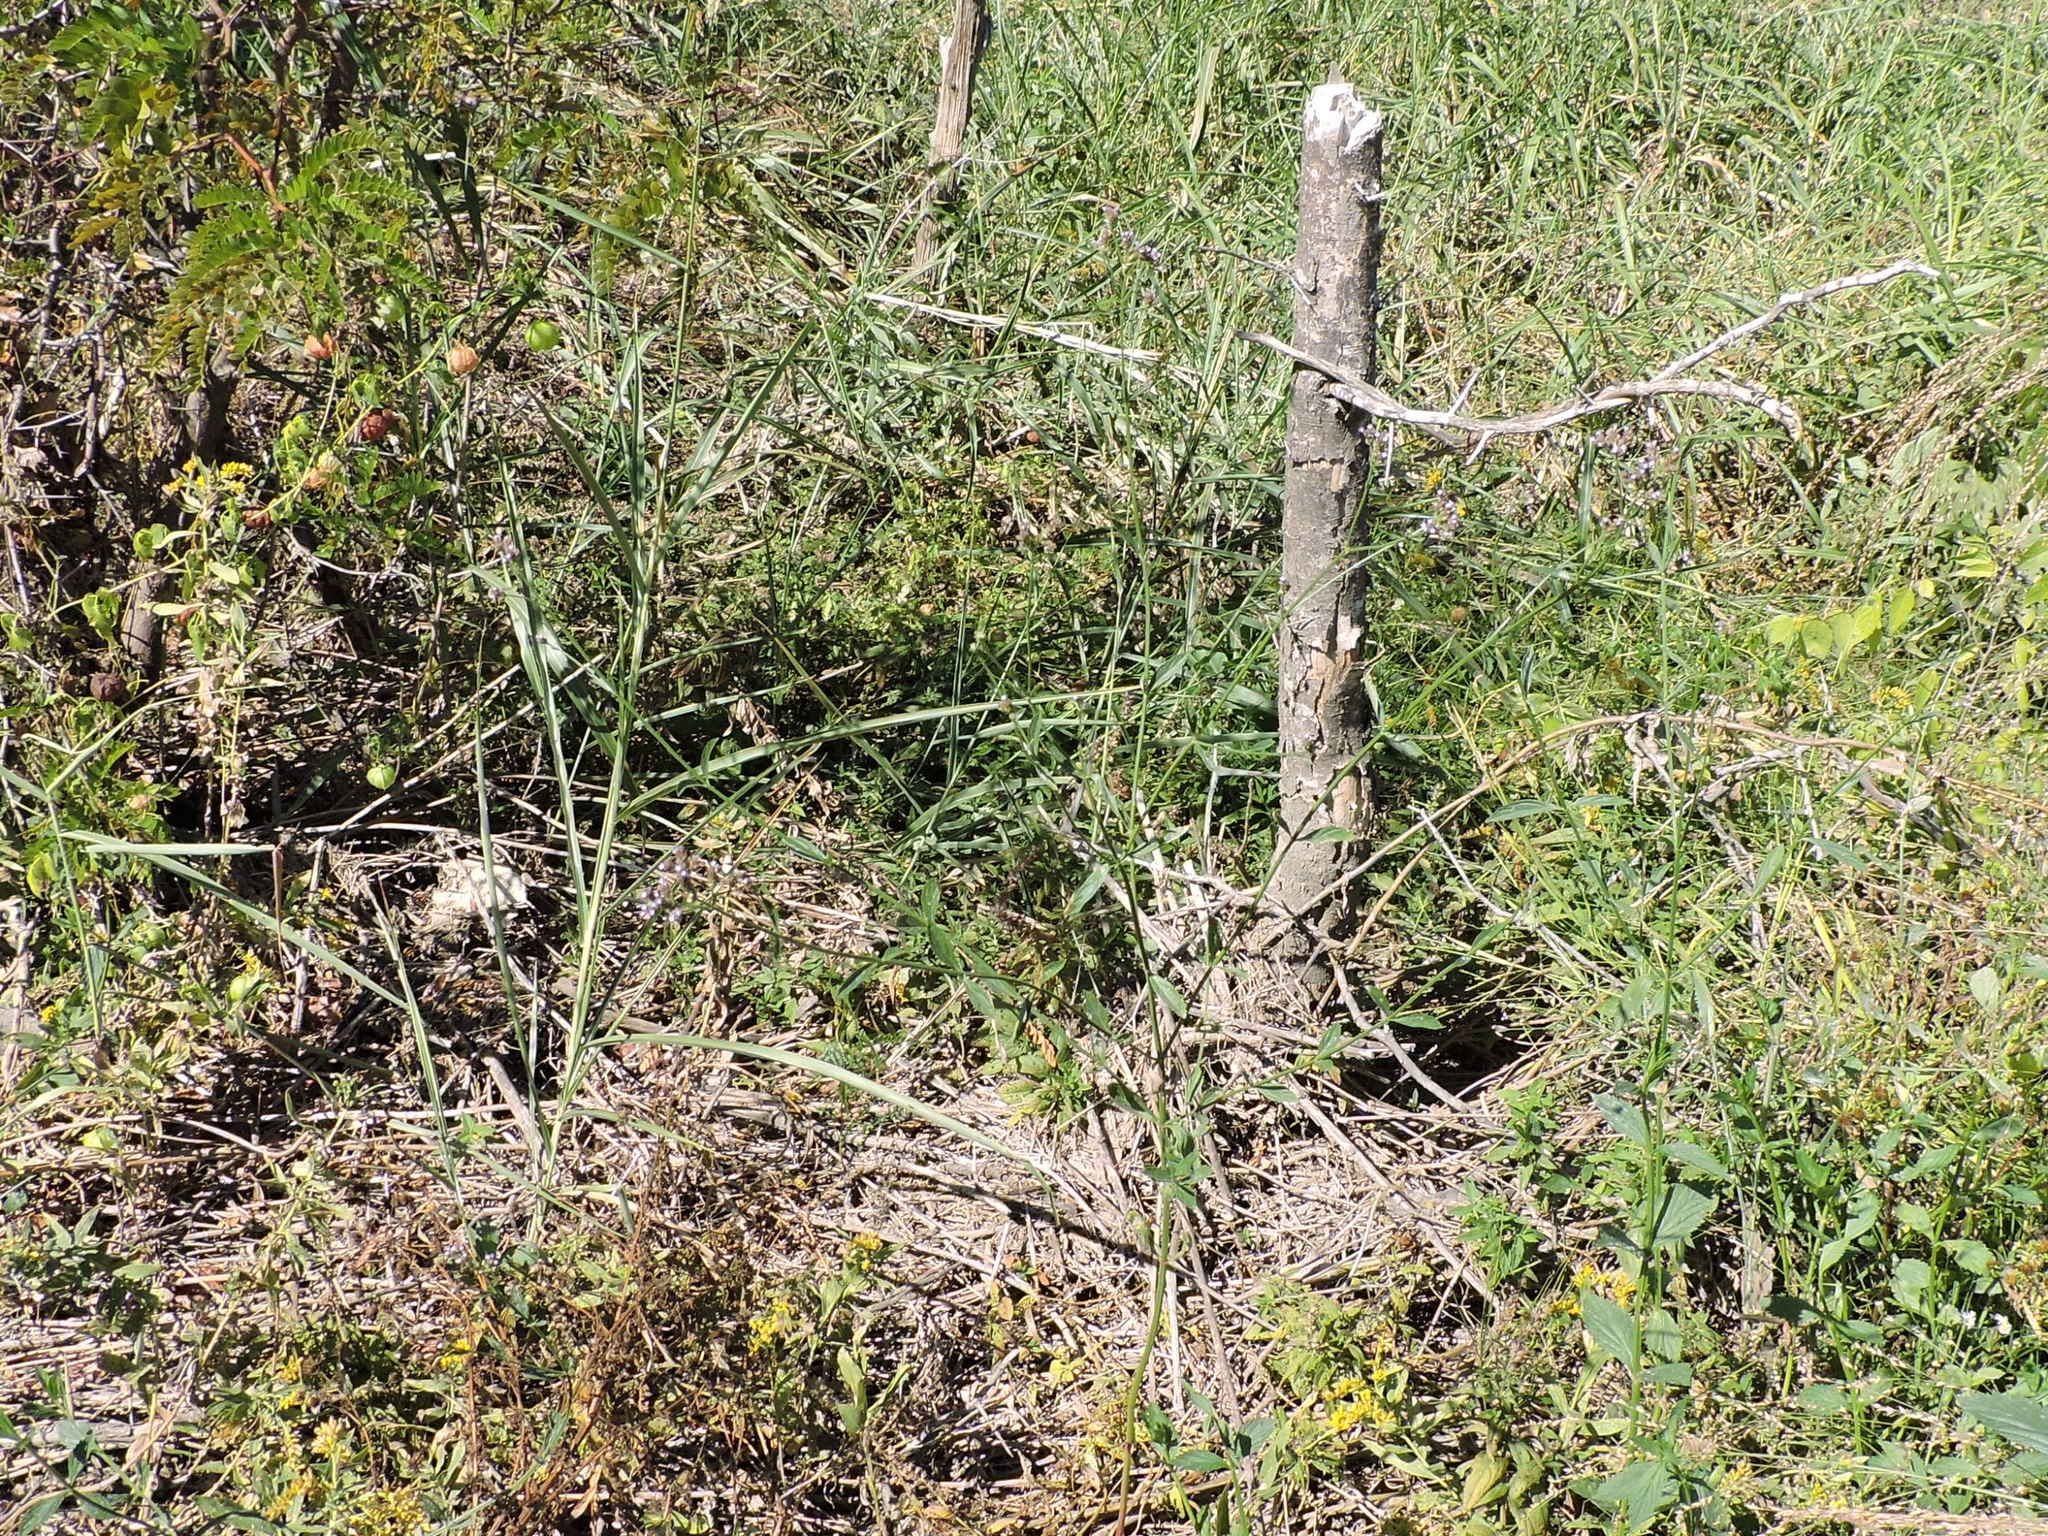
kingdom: Plantae
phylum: Tracheophyta
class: Magnoliopsida
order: Lamiales
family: Verbenaceae
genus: Verbena
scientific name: Verbena brasiliensis
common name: Brazilian vervain
